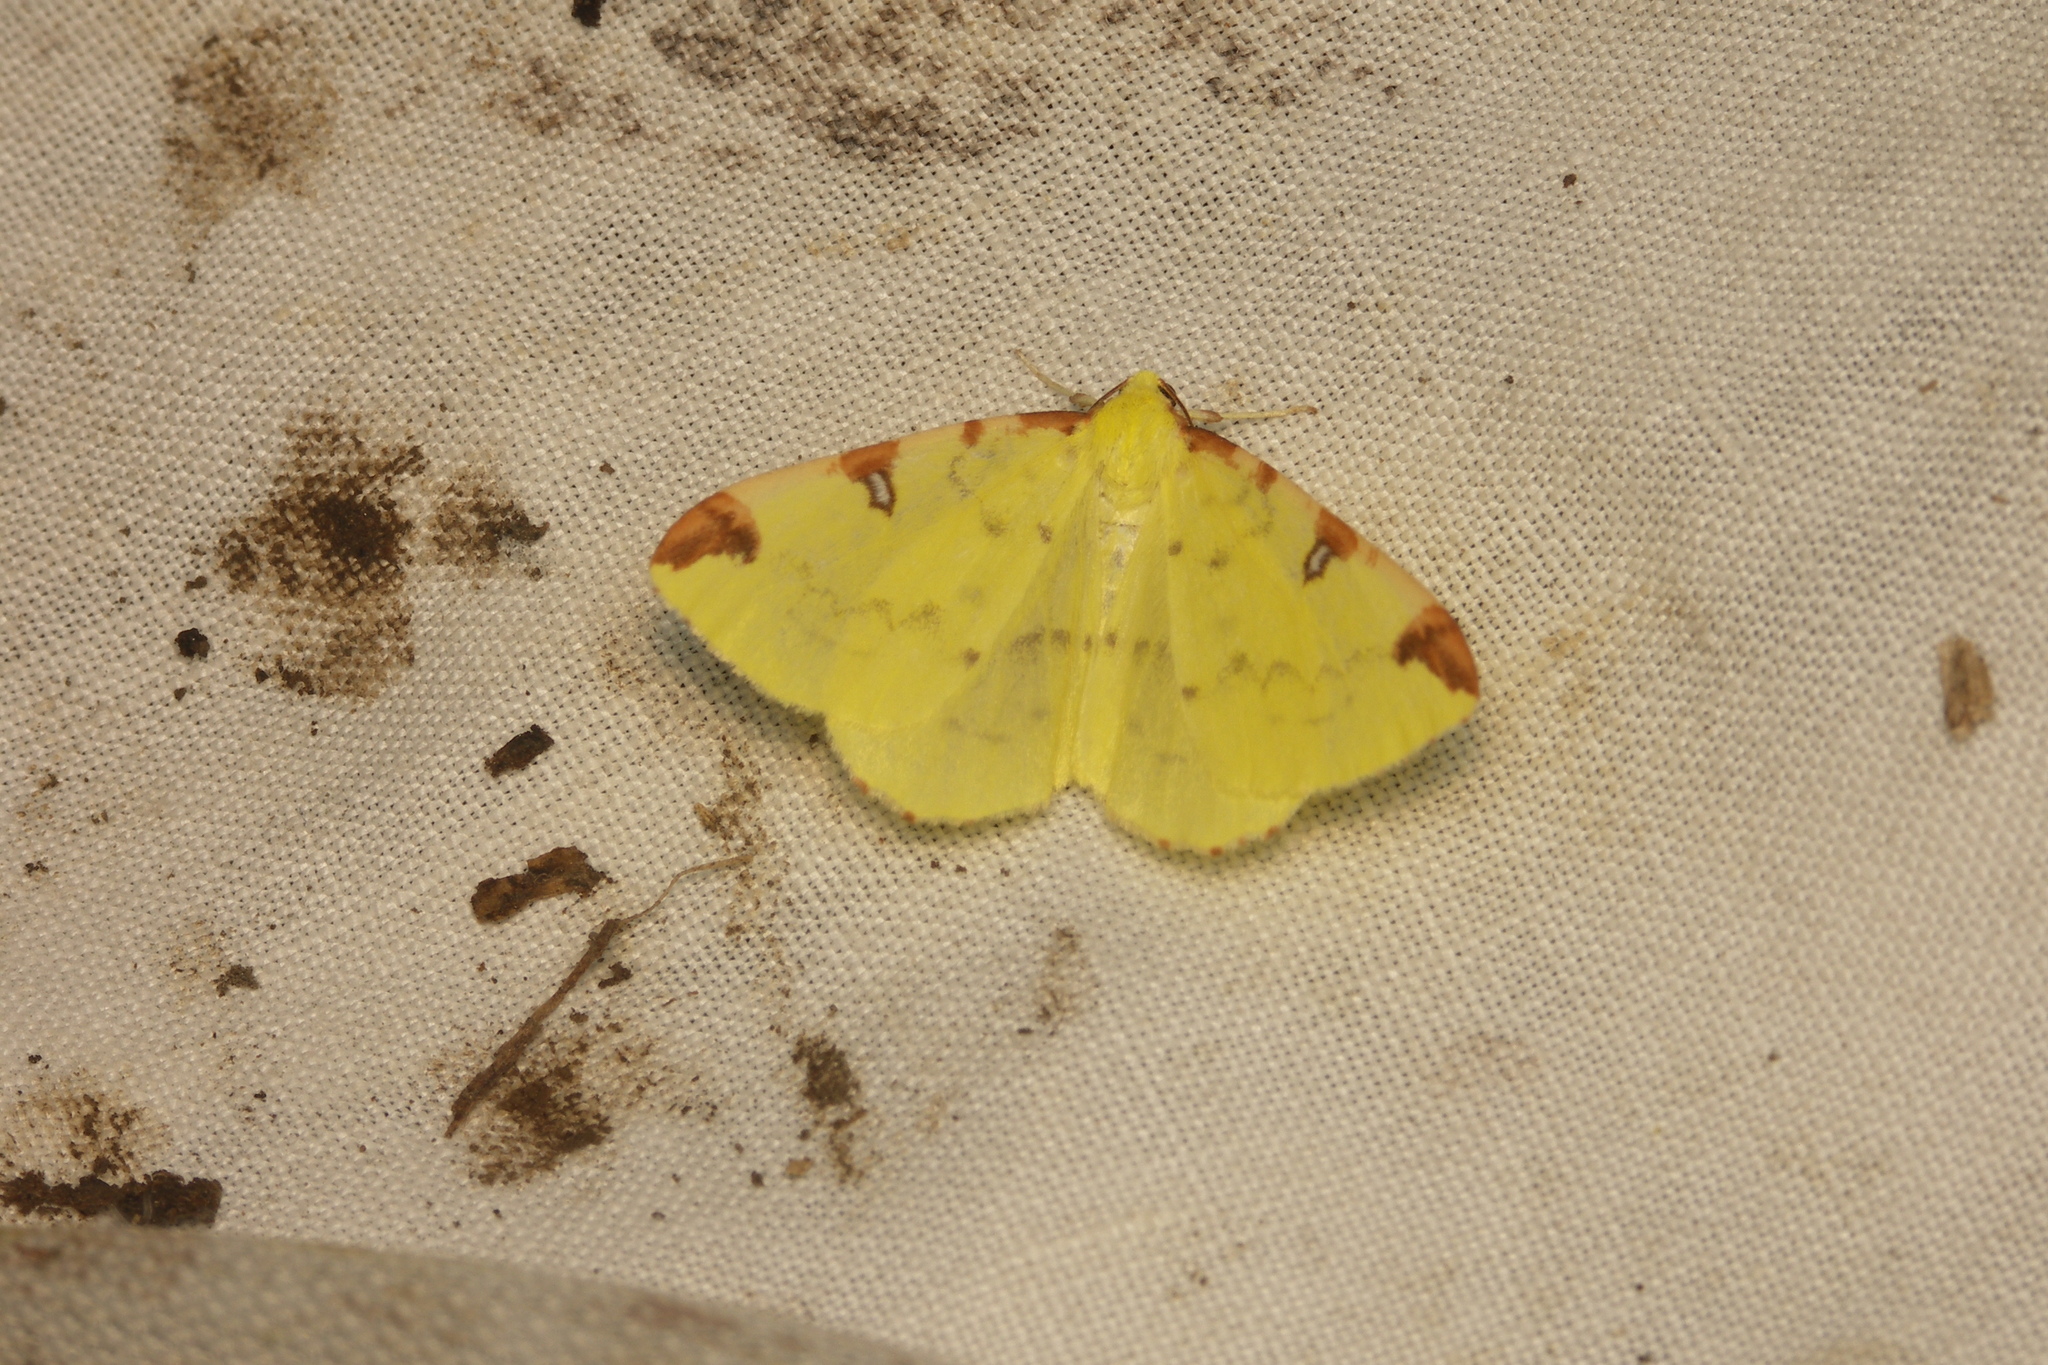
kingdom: Animalia
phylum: Arthropoda
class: Insecta
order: Lepidoptera
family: Geometridae
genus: Opisthograptis
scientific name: Opisthograptis luteolata
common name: Brimstone moth
